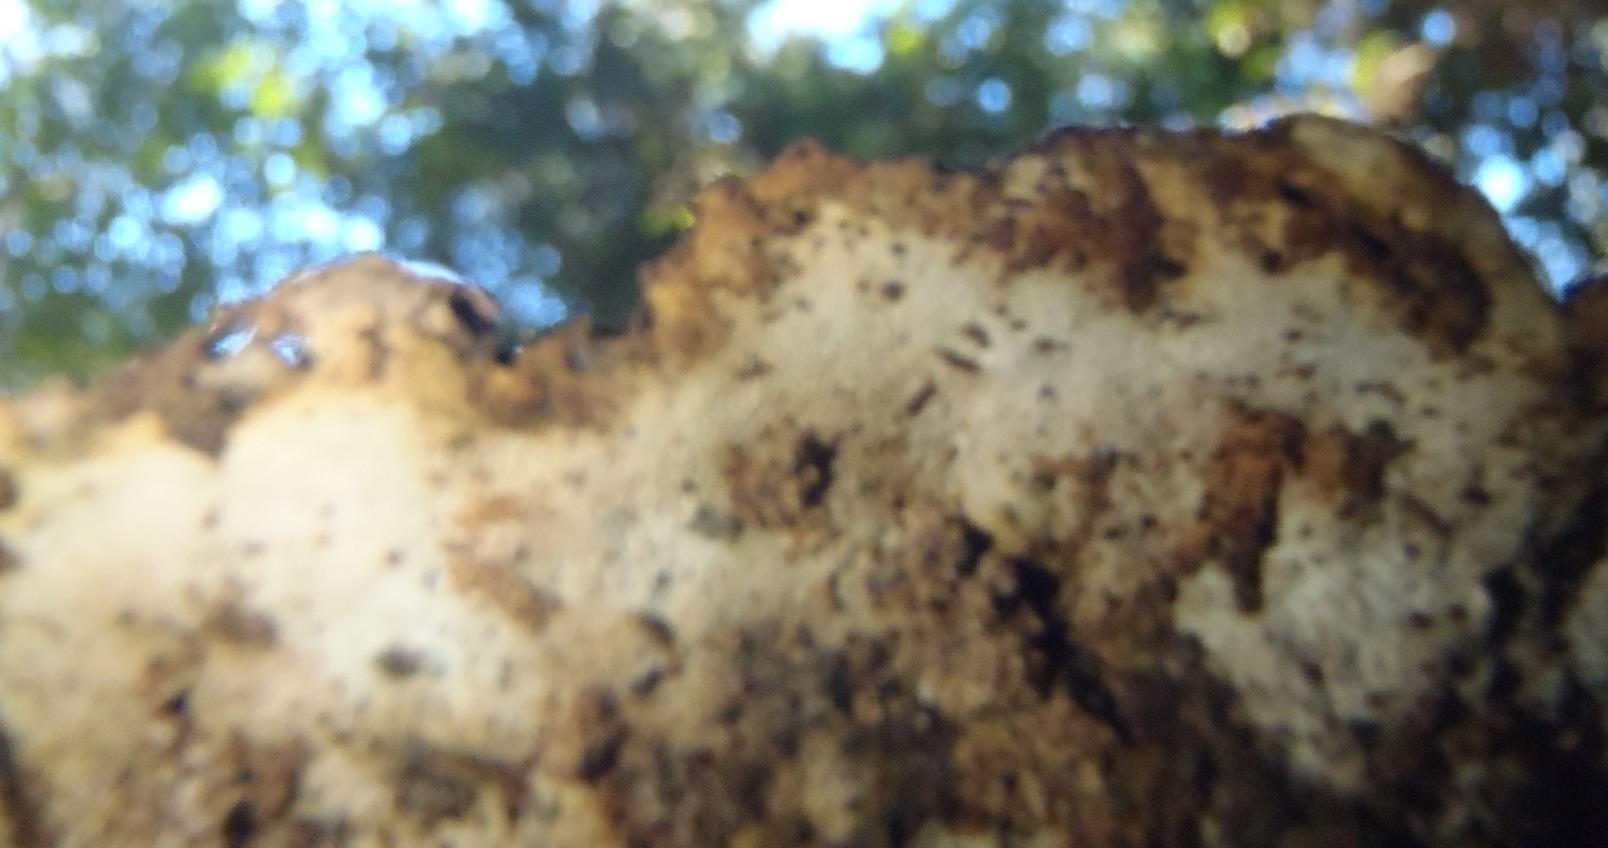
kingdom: Fungi
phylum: Basidiomycota
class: Agaricomycetes
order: Polyporales
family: Fomitopsidaceae
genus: Rhodofomitopsis
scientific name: Rhodofomitopsis lilacinogilva
